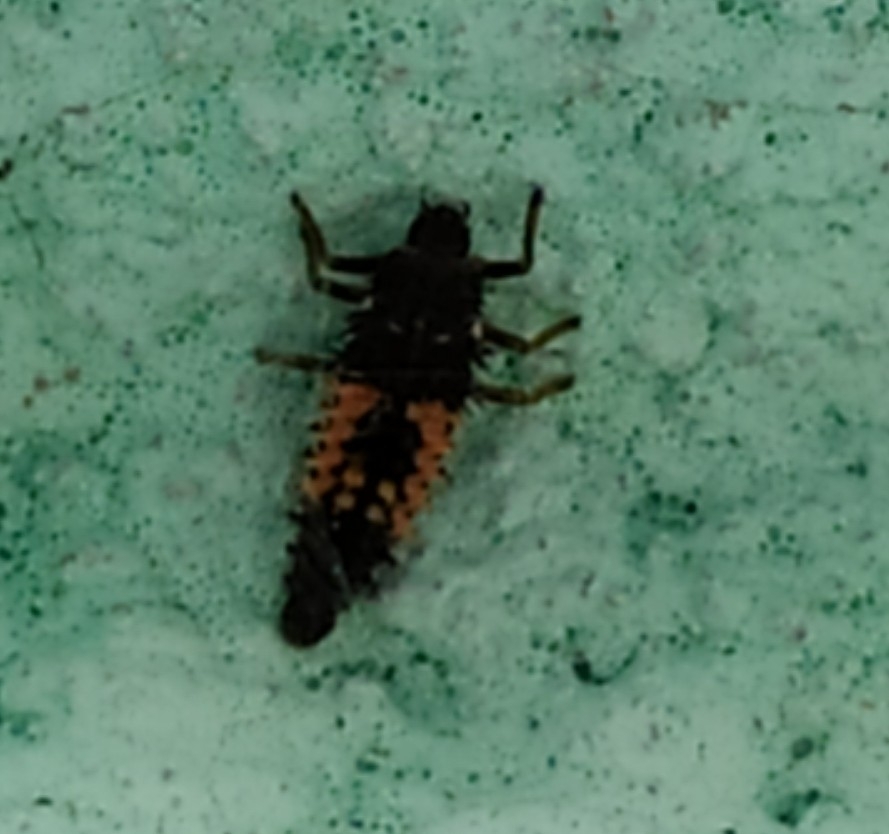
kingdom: Animalia
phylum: Arthropoda
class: Insecta
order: Coleoptera
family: Coccinellidae
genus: Harmonia
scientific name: Harmonia axyridis
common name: Harlequin ladybird
